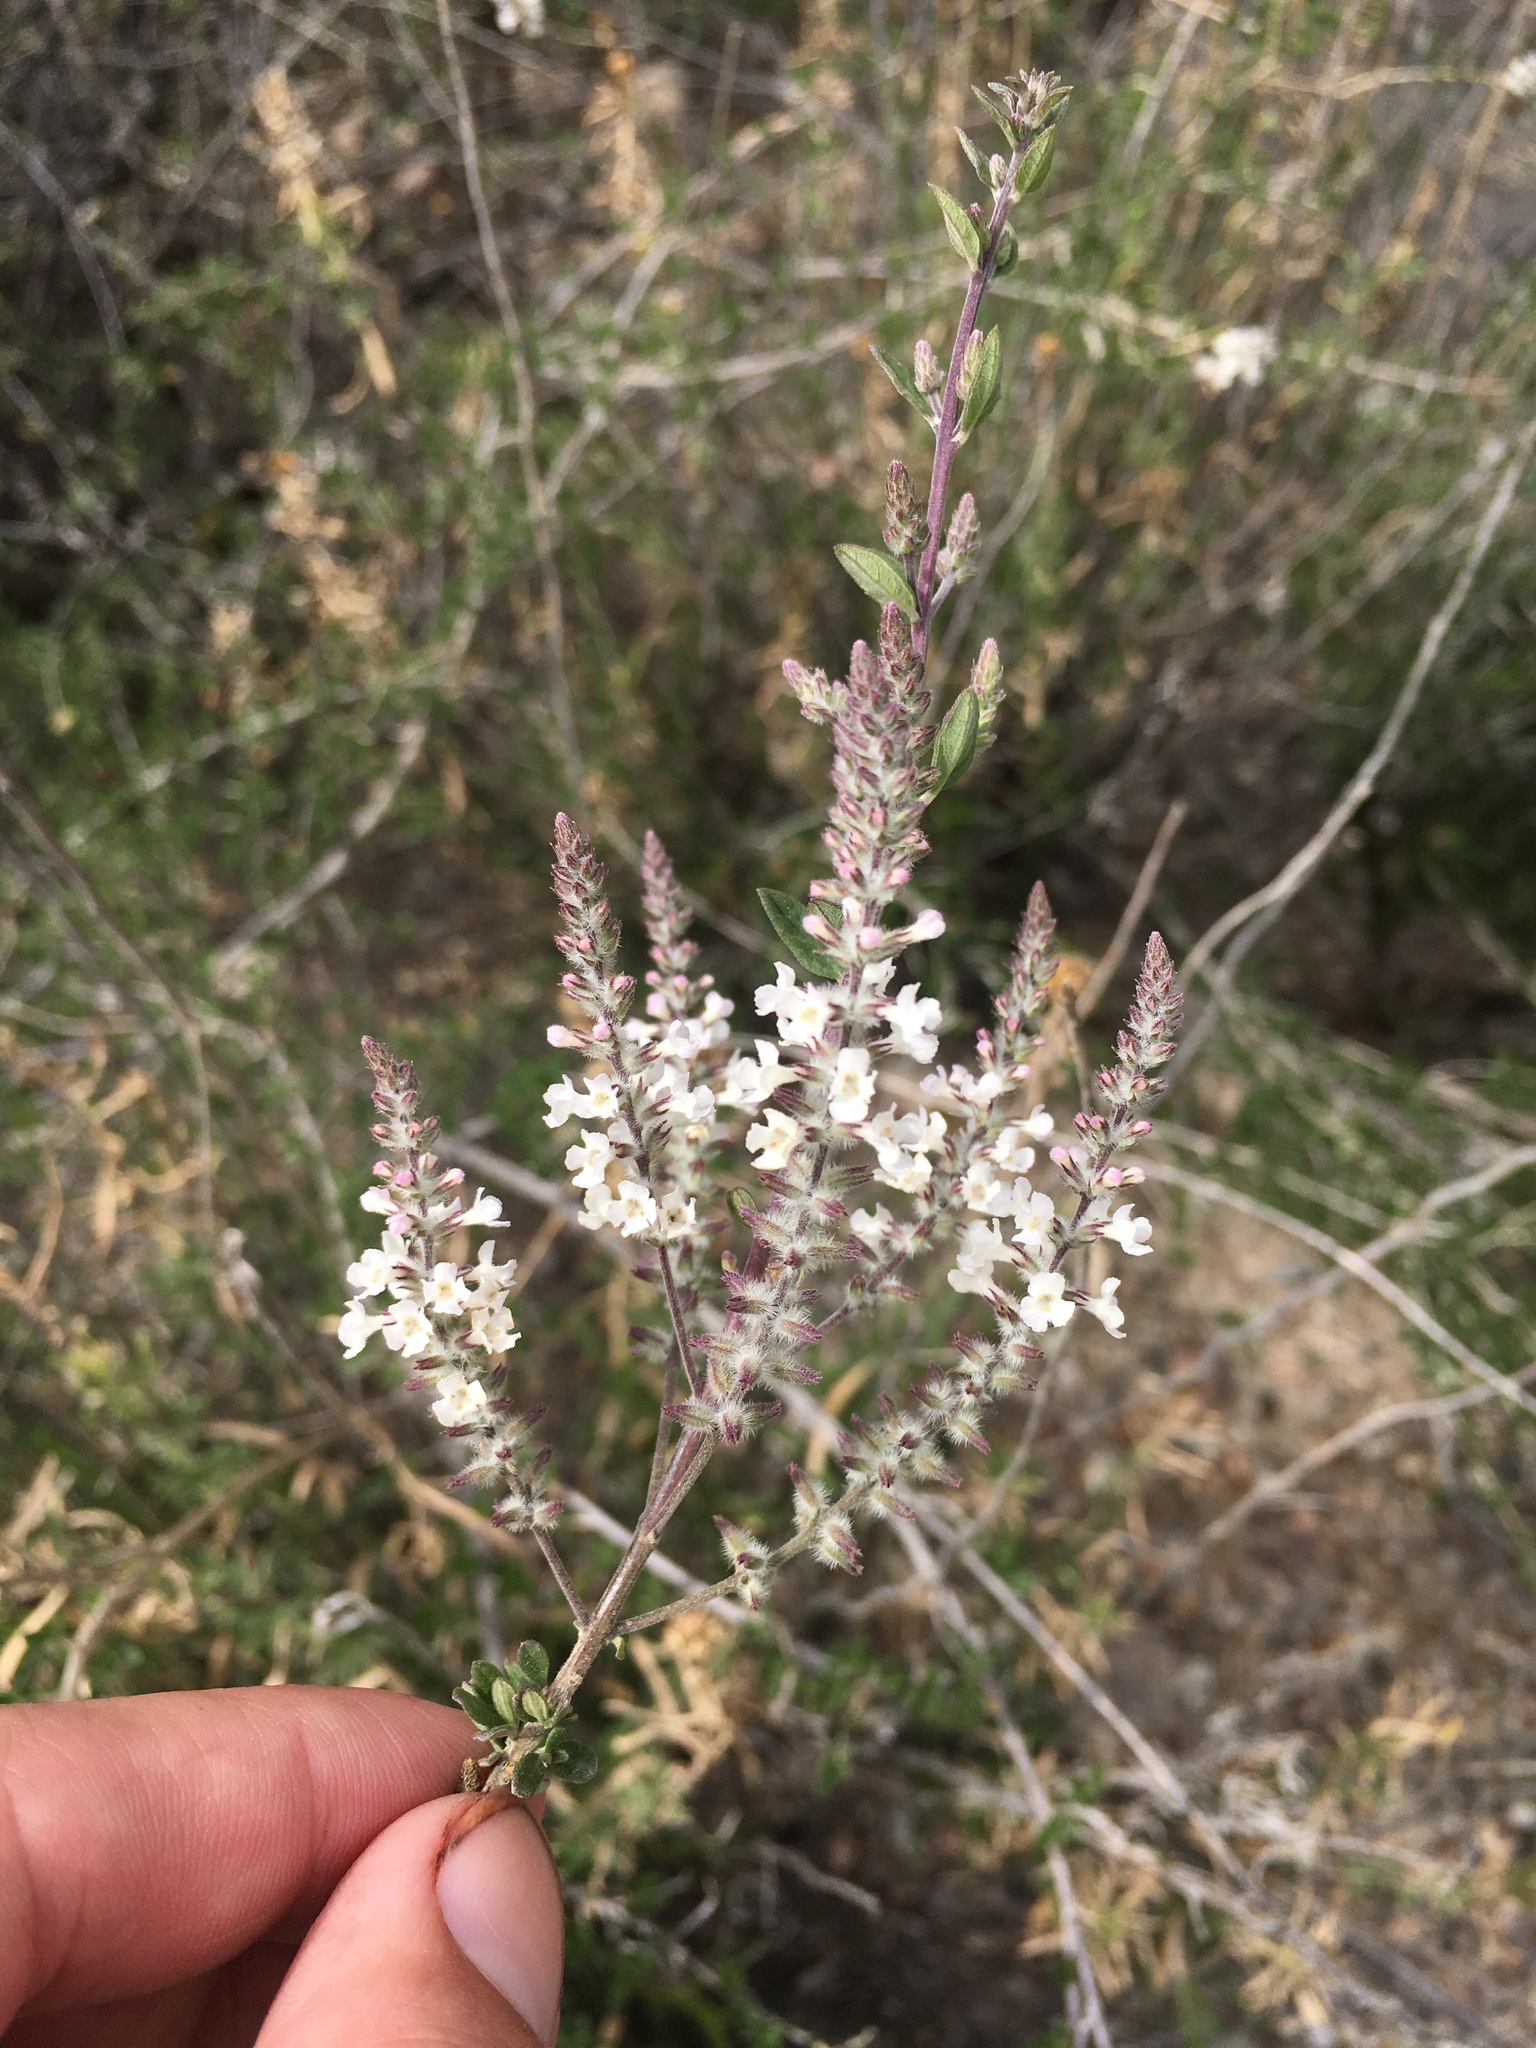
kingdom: Plantae
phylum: Tracheophyta
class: Magnoliopsida
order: Lamiales
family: Verbenaceae
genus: Aloysia
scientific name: Aloysia gratissima
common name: Common bee-brush
